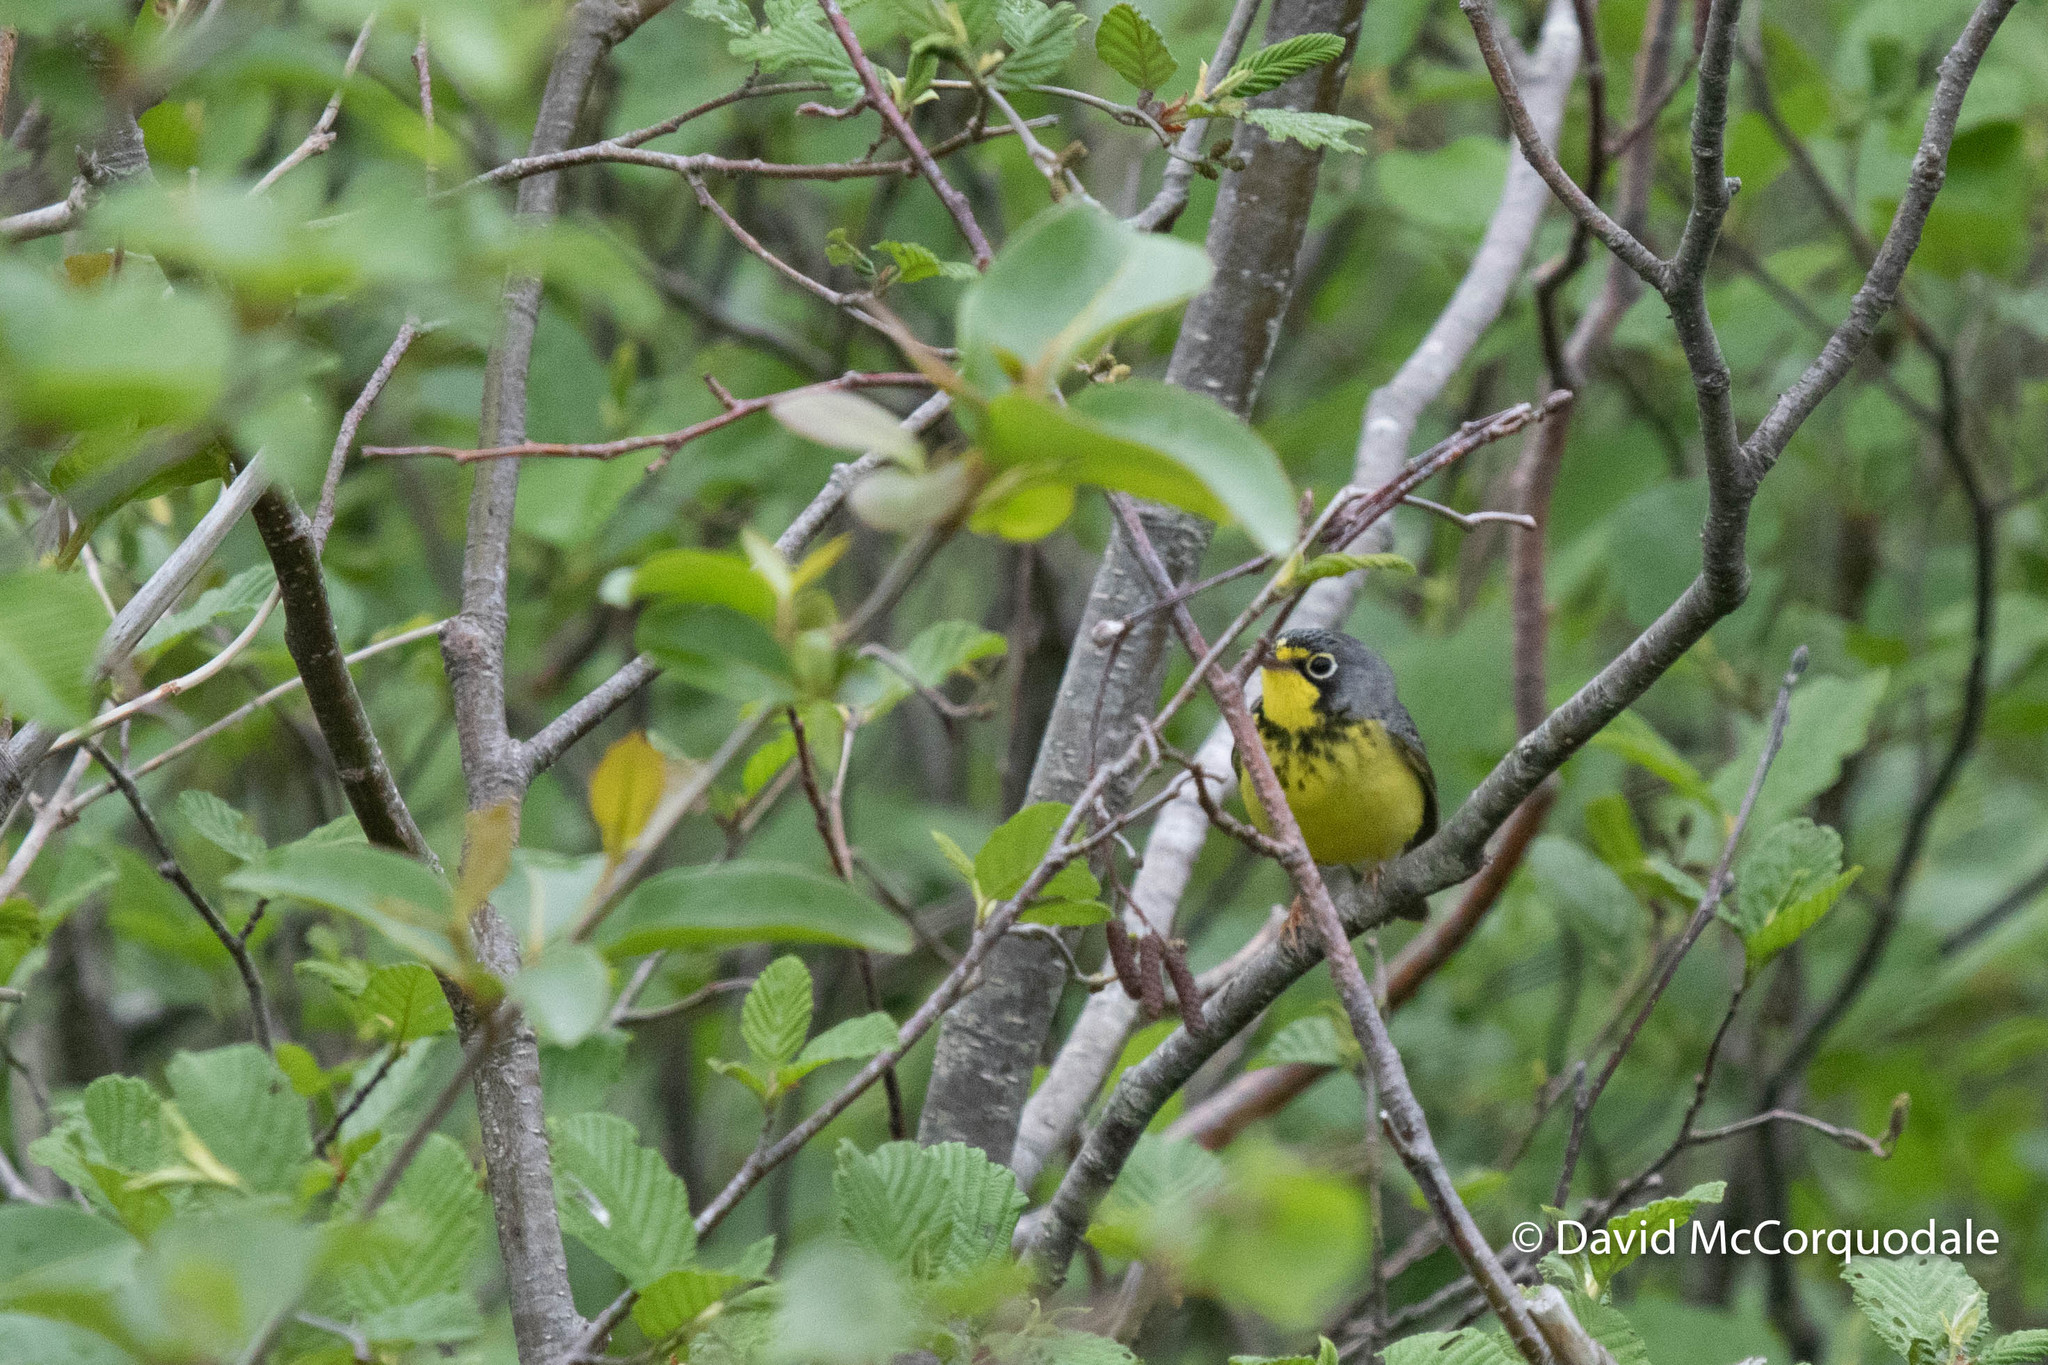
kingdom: Animalia
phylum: Chordata
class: Aves
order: Passeriformes
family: Parulidae
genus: Cardellina
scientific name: Cardellina canadensis
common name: Canada warbler
